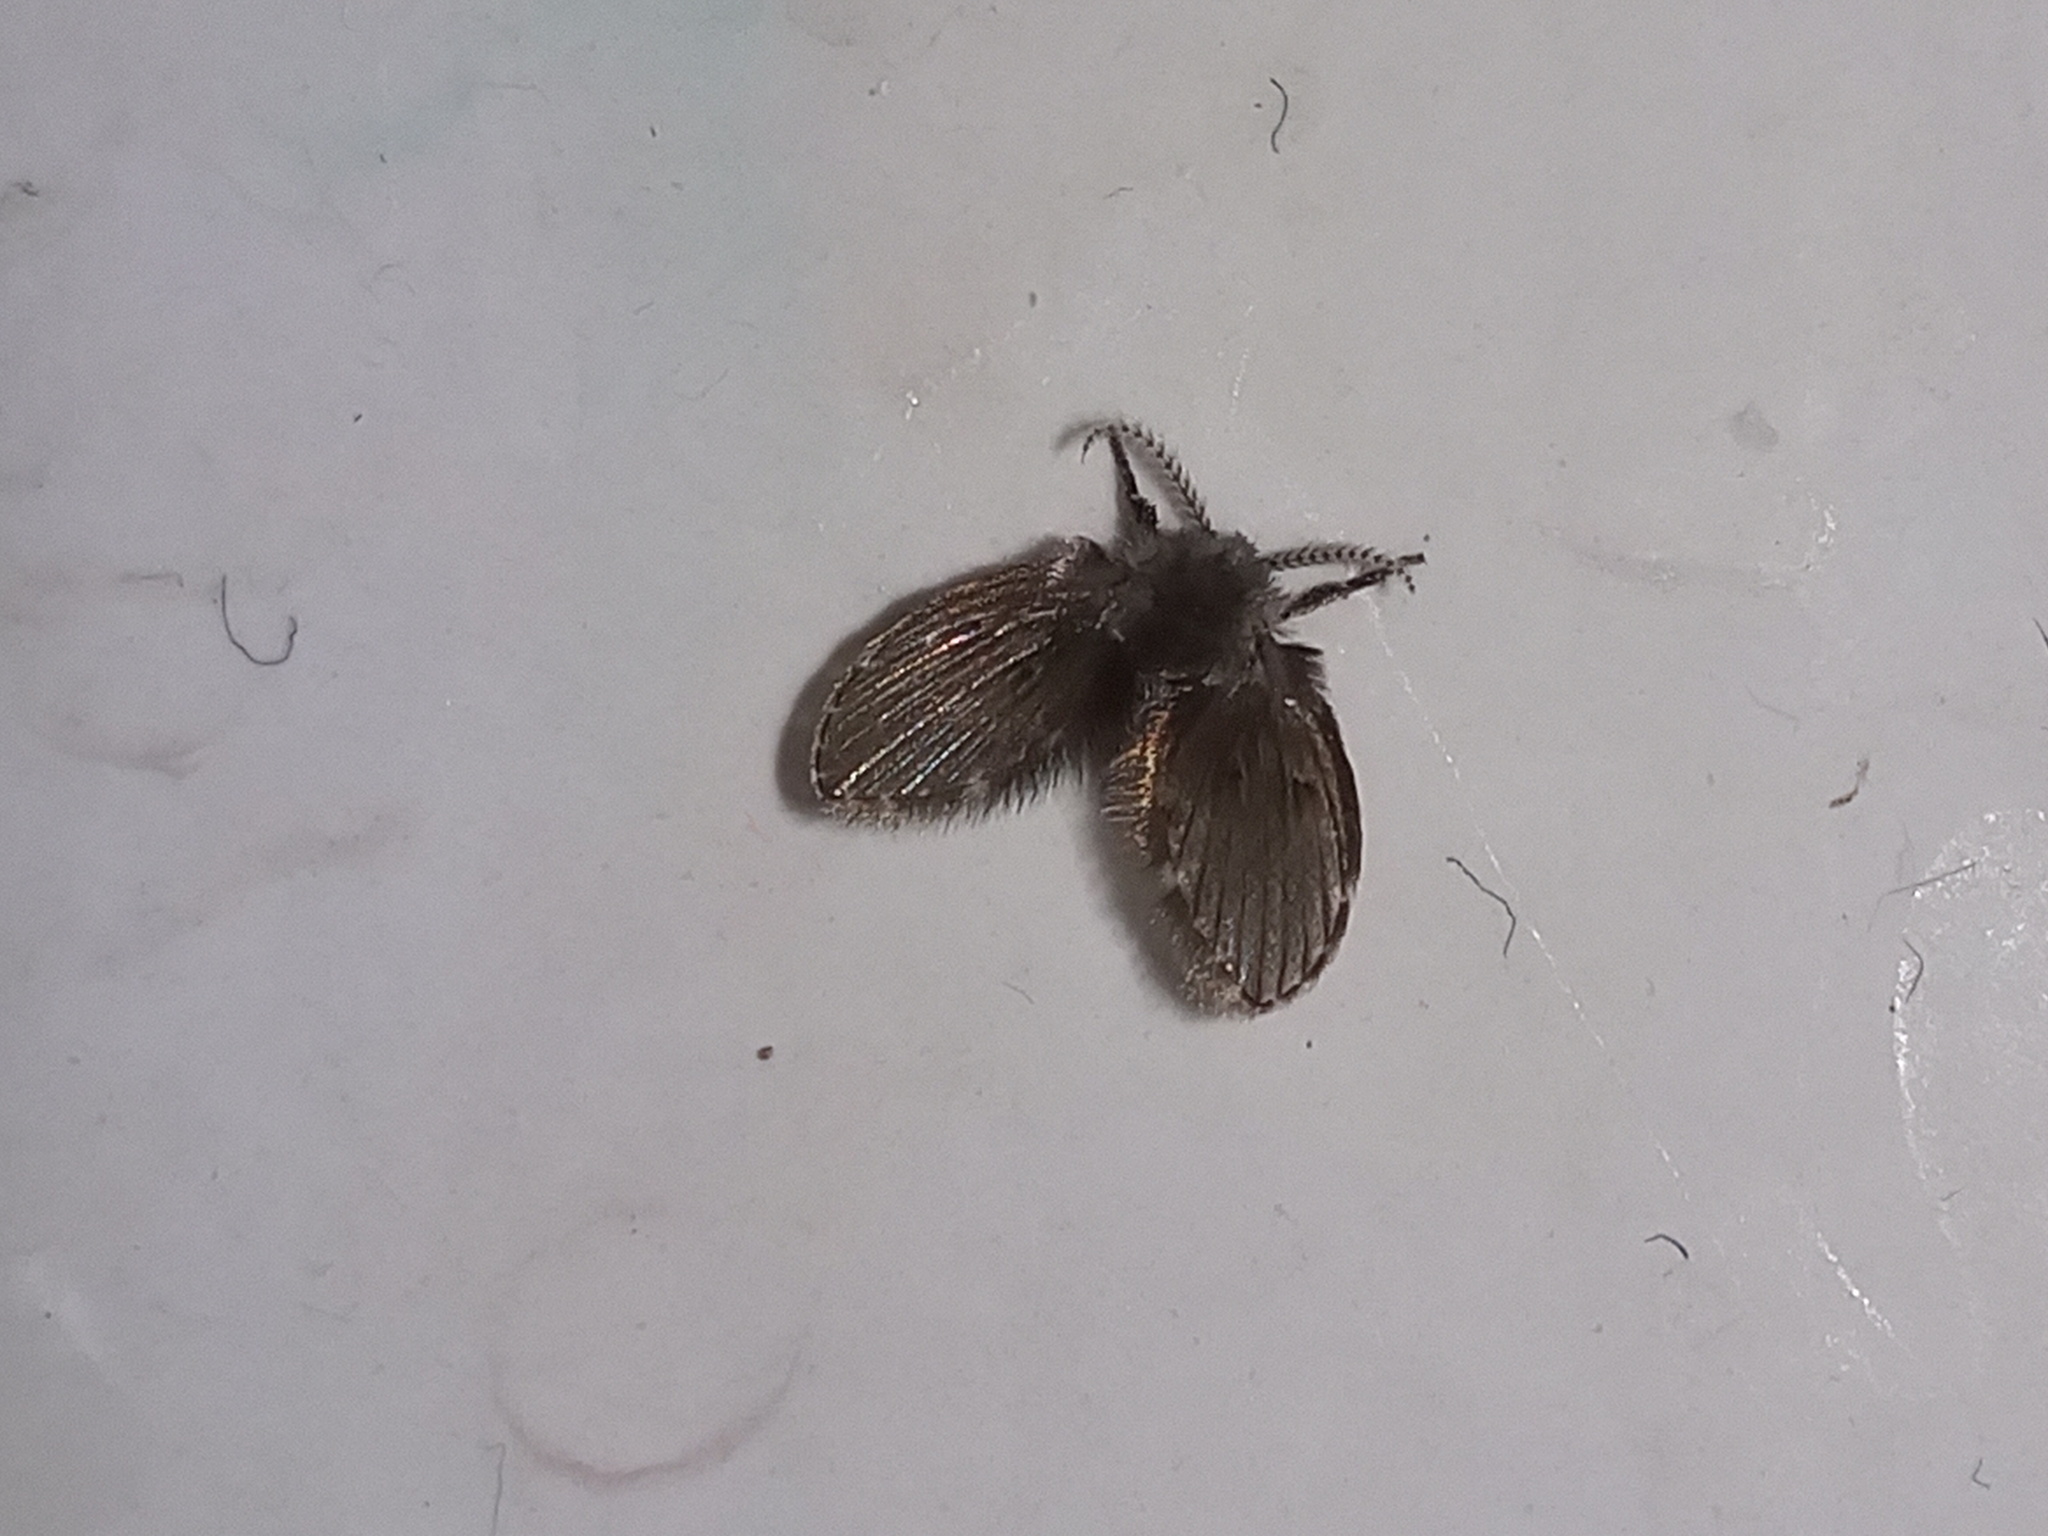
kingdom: Animalia
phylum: Arthropoda
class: Insecta
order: Diptera
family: Psychodidae
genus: Clogmia
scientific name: Clogmia albipunctatus
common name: White-spotted moth fly
